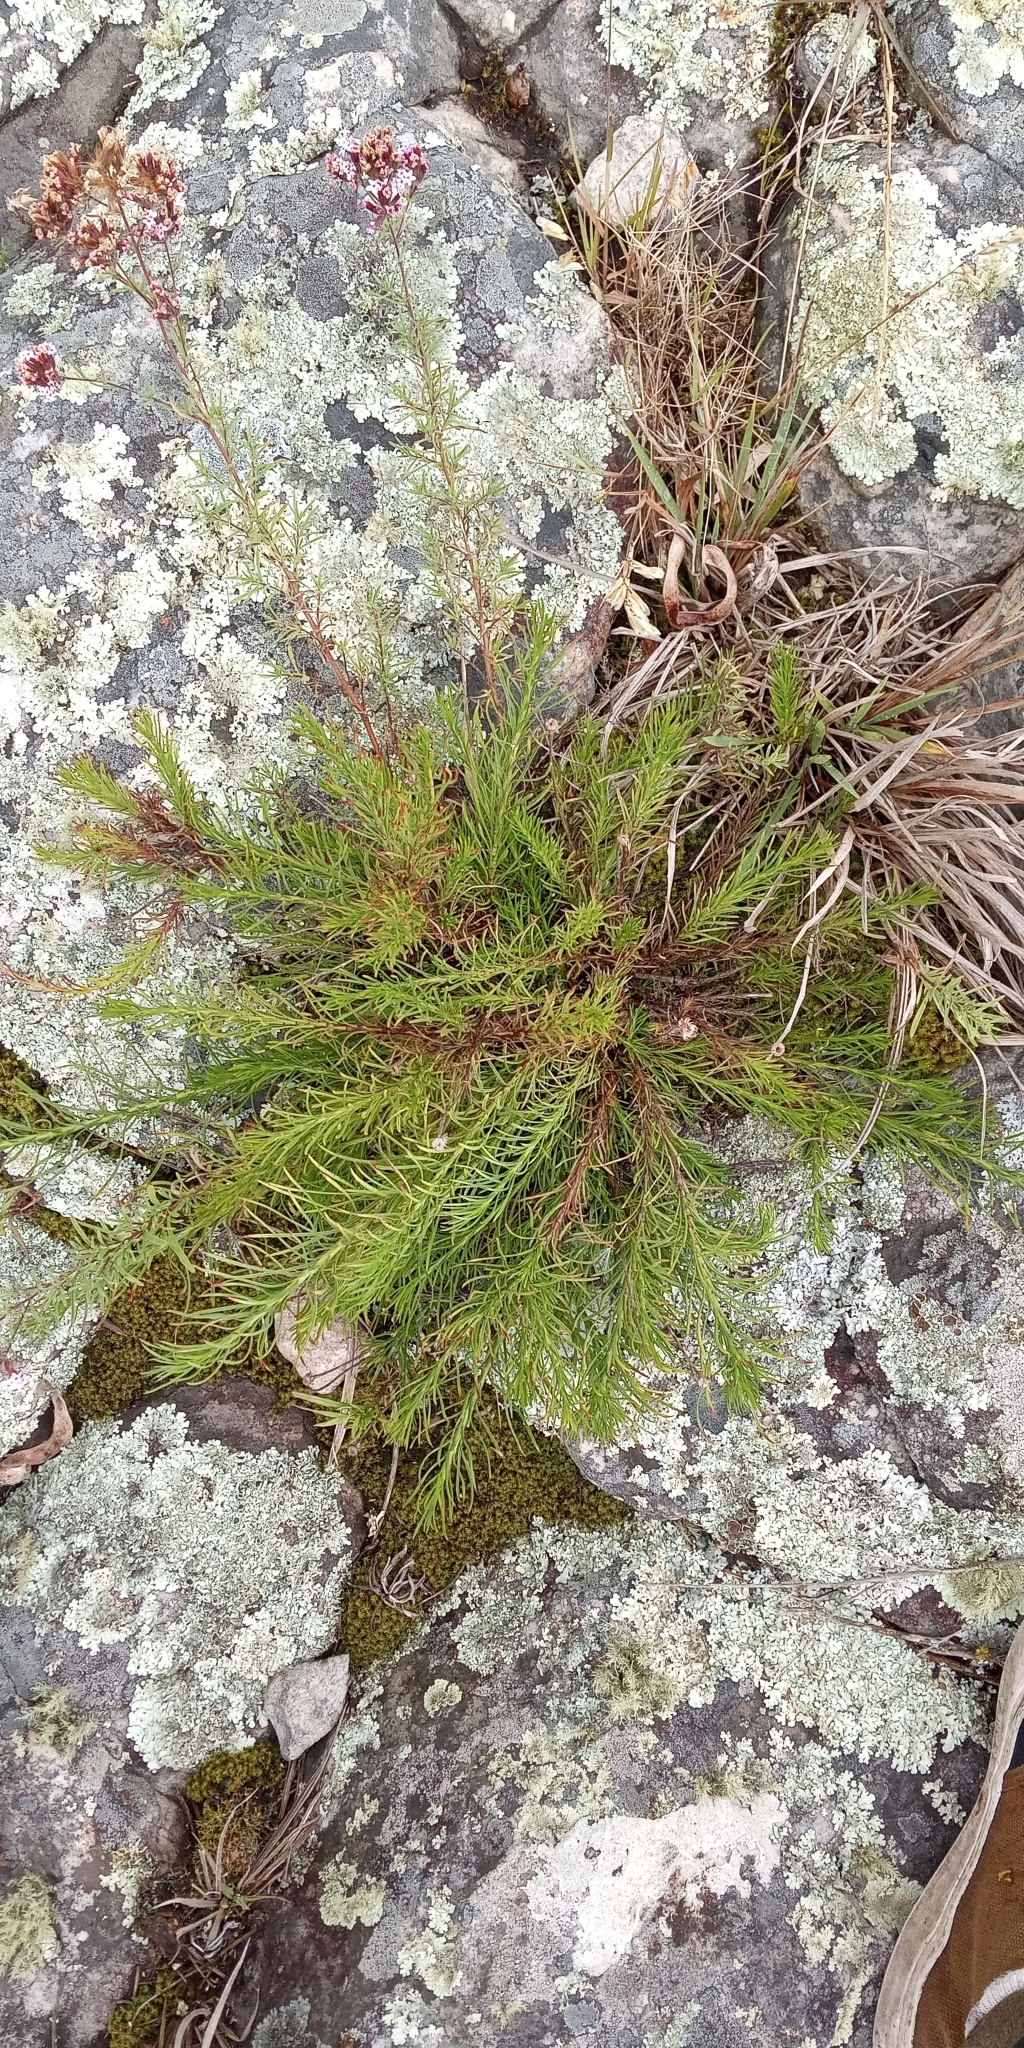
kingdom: Plantae
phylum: Tracheophyta
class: Magnoliopsida
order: Asterales
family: Asteraceae
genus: Neja
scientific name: Neja pinifolia
